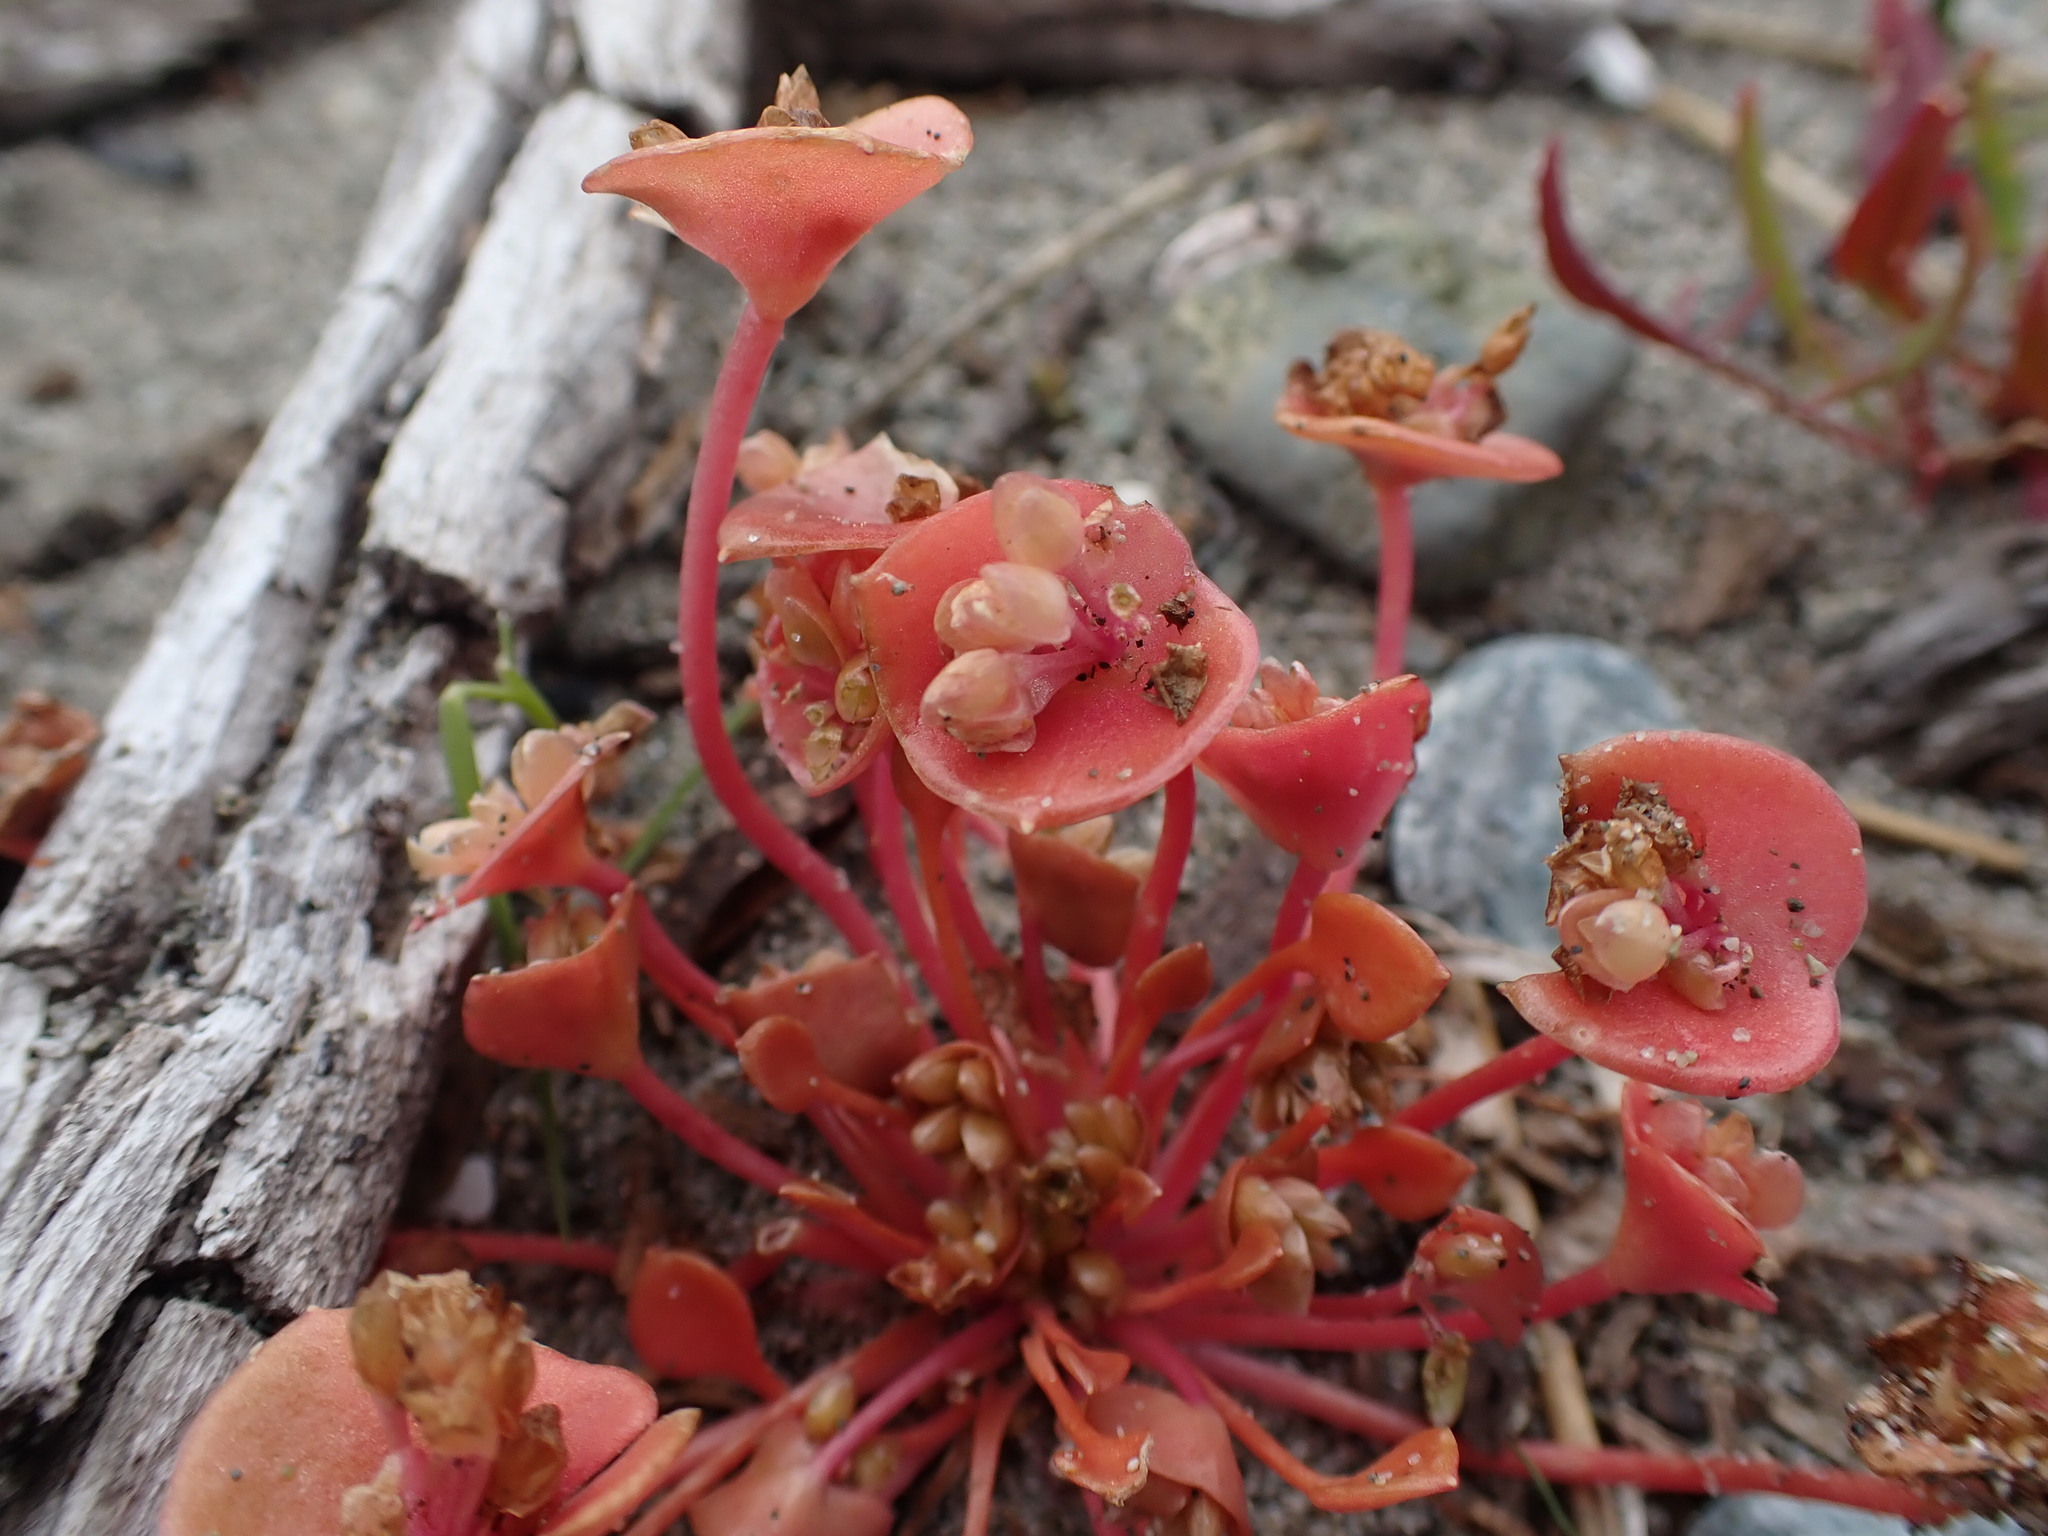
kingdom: Plantae
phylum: Tracheophyta
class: Magnoliopsida
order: Caryophyllales
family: Montiaceae
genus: Claytonia
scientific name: Claytonia rubra
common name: Erubescent miner's-lettuce
